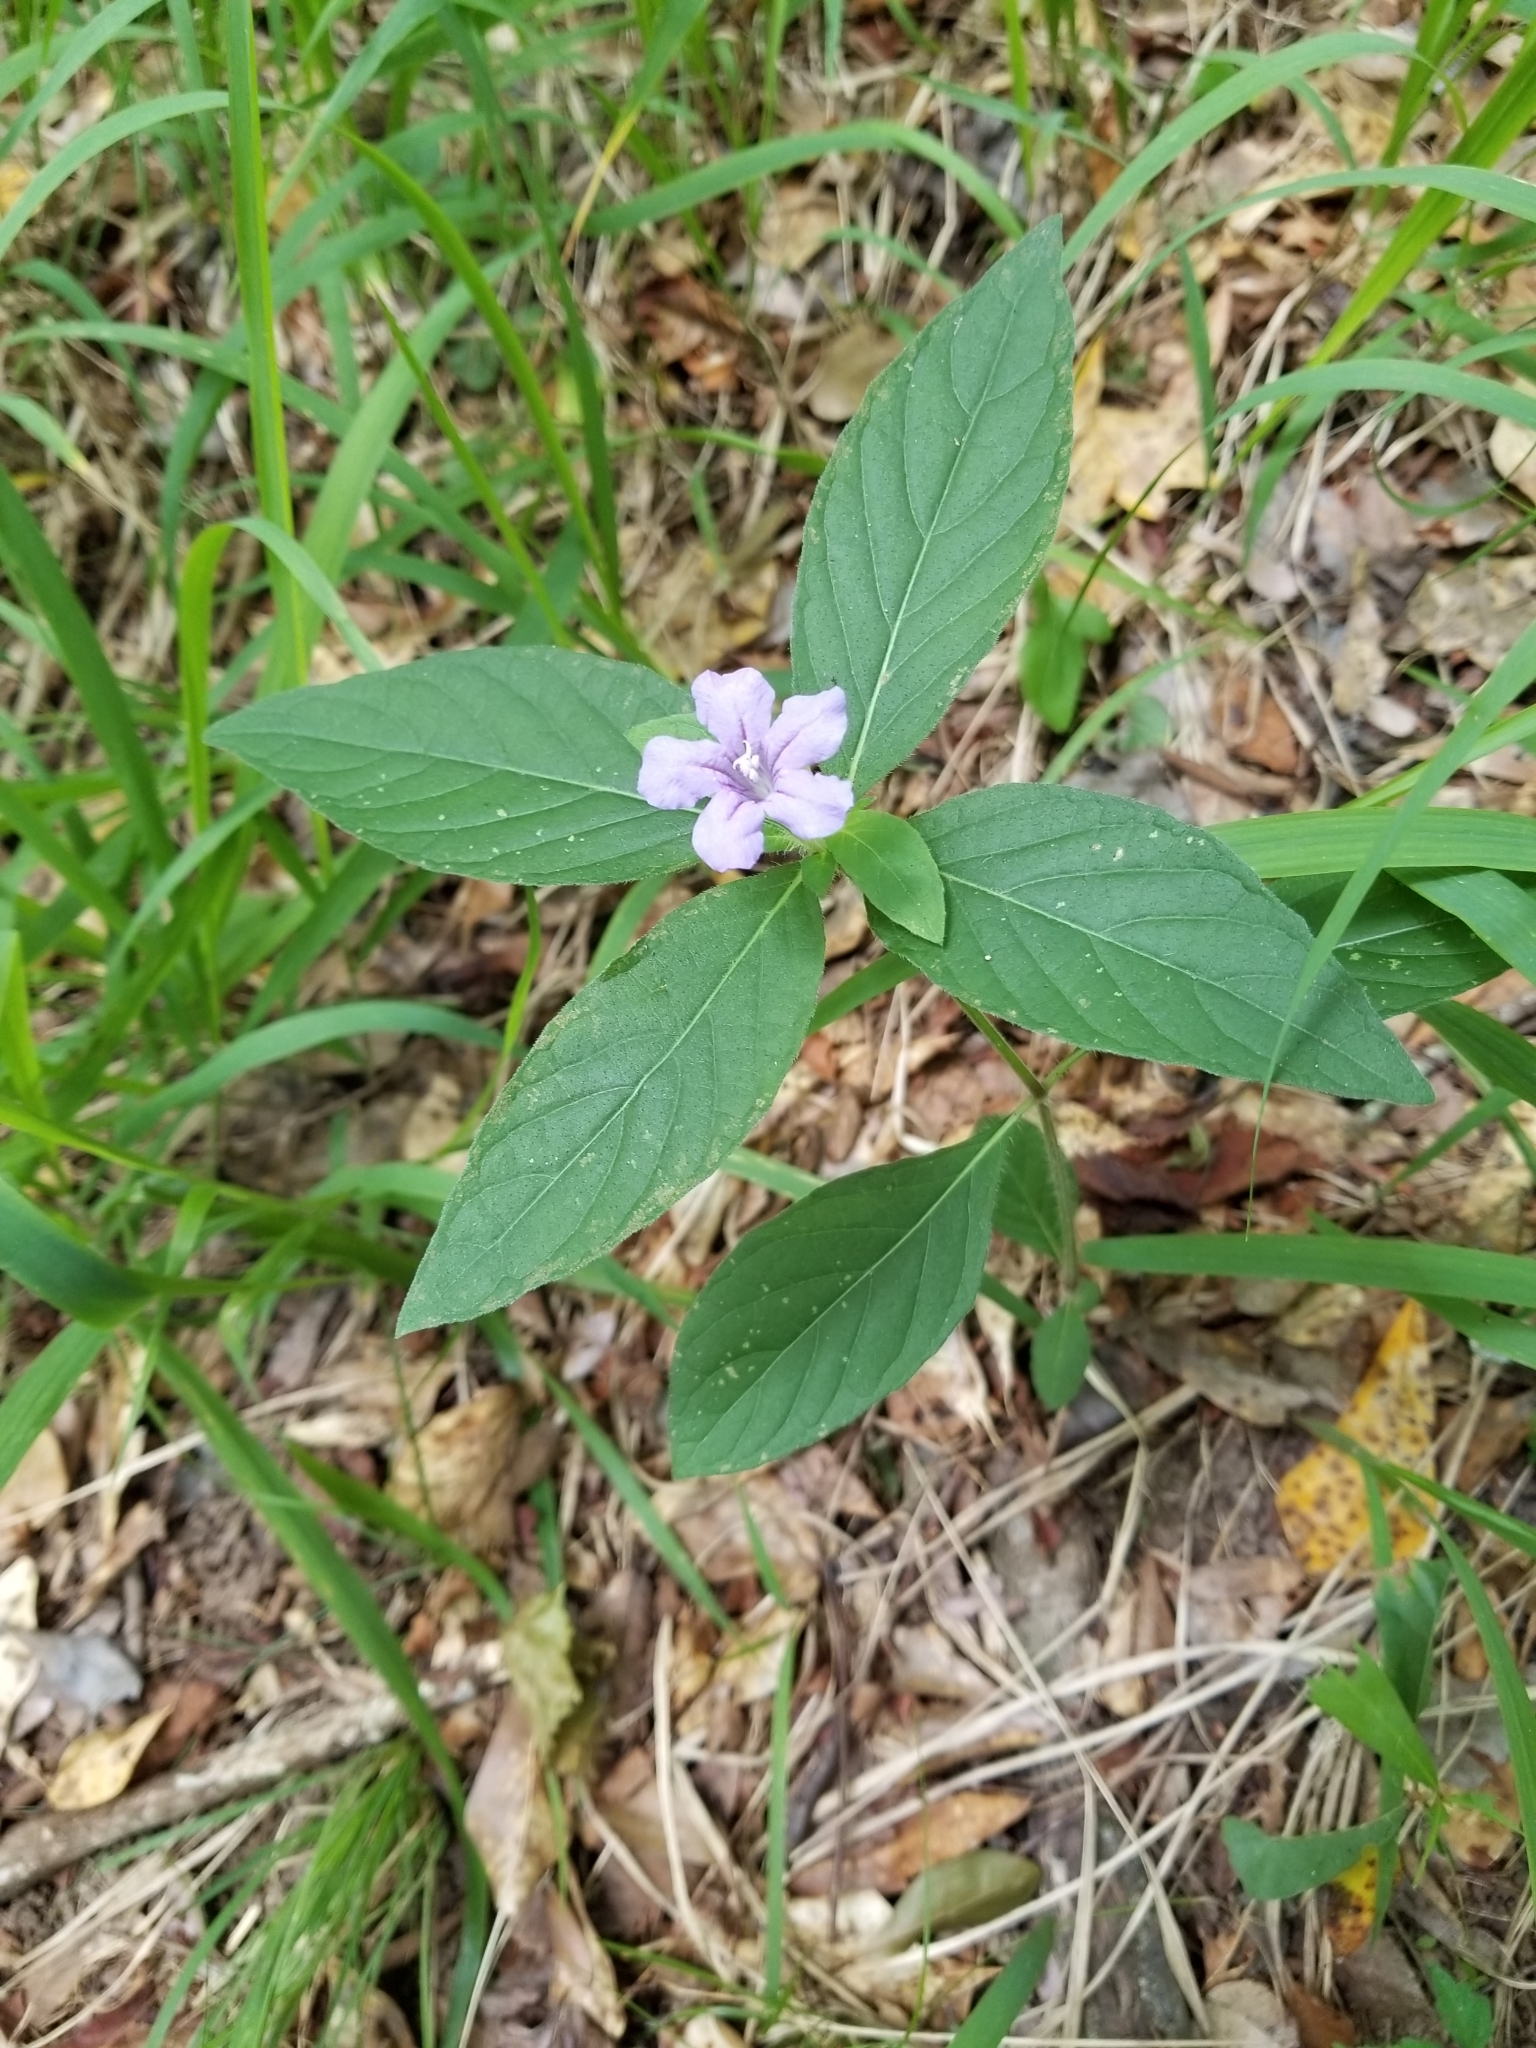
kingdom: Plantae
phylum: Tracheophyta
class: Magnoliopsida
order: Lamiales
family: Acanthaceae
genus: Ruellia
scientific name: Ruellia caroliniensis
